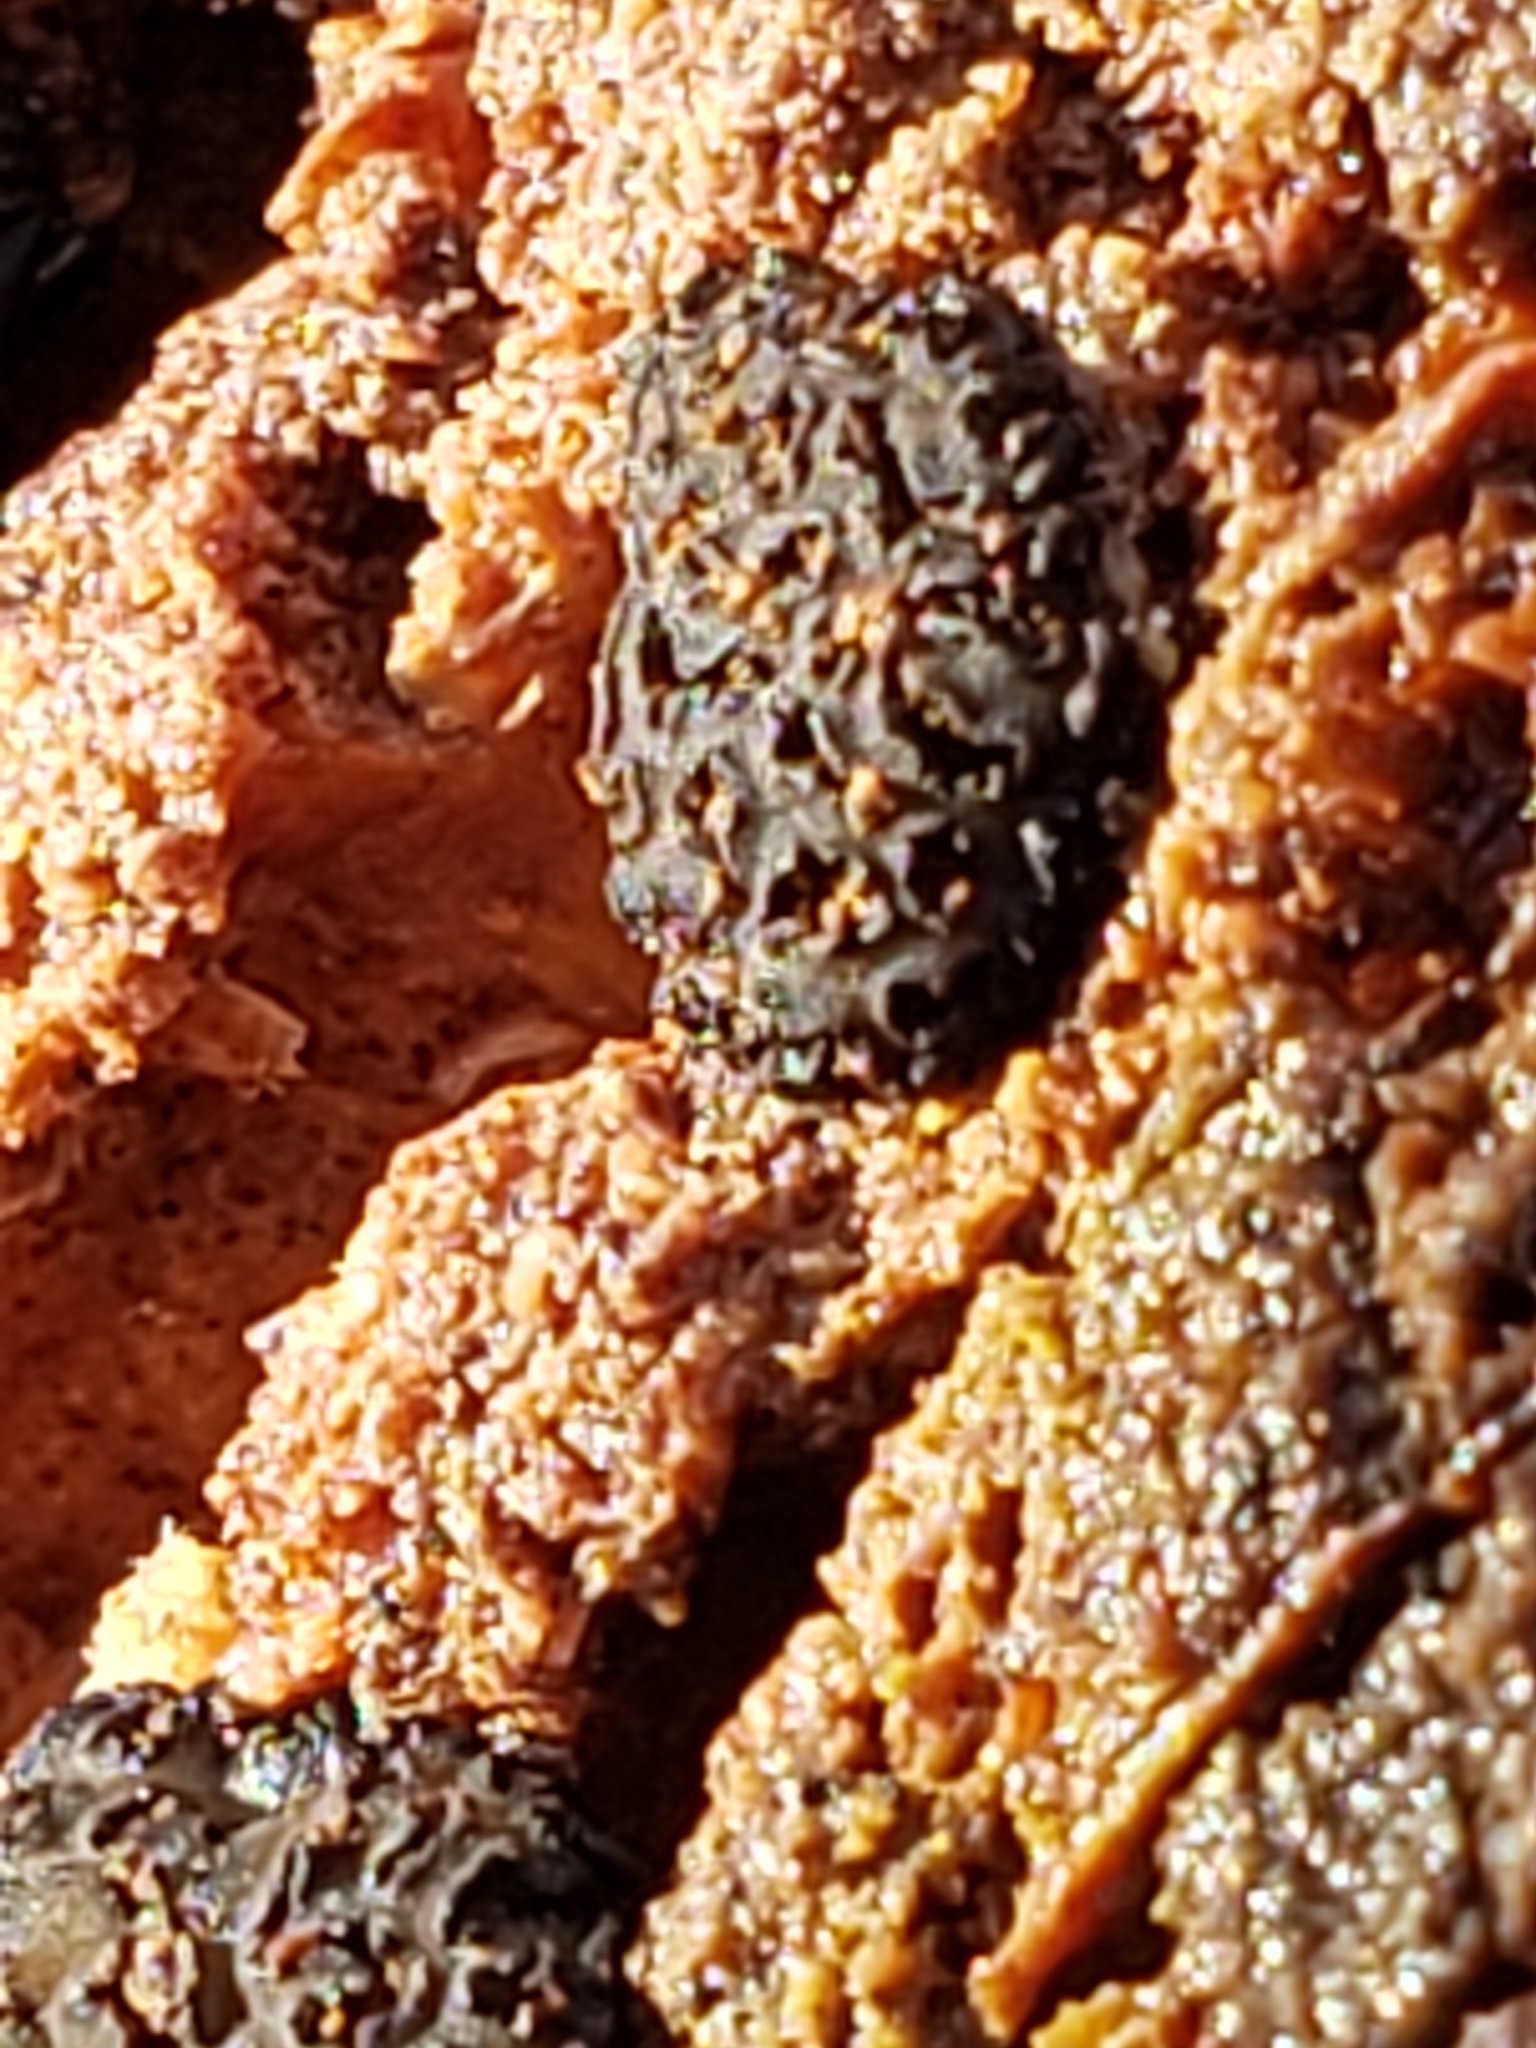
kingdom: Fungi
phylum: Ascomycota
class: Leotiomycetes
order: Helotiales
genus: Angelina
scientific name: Angelina rufescens
